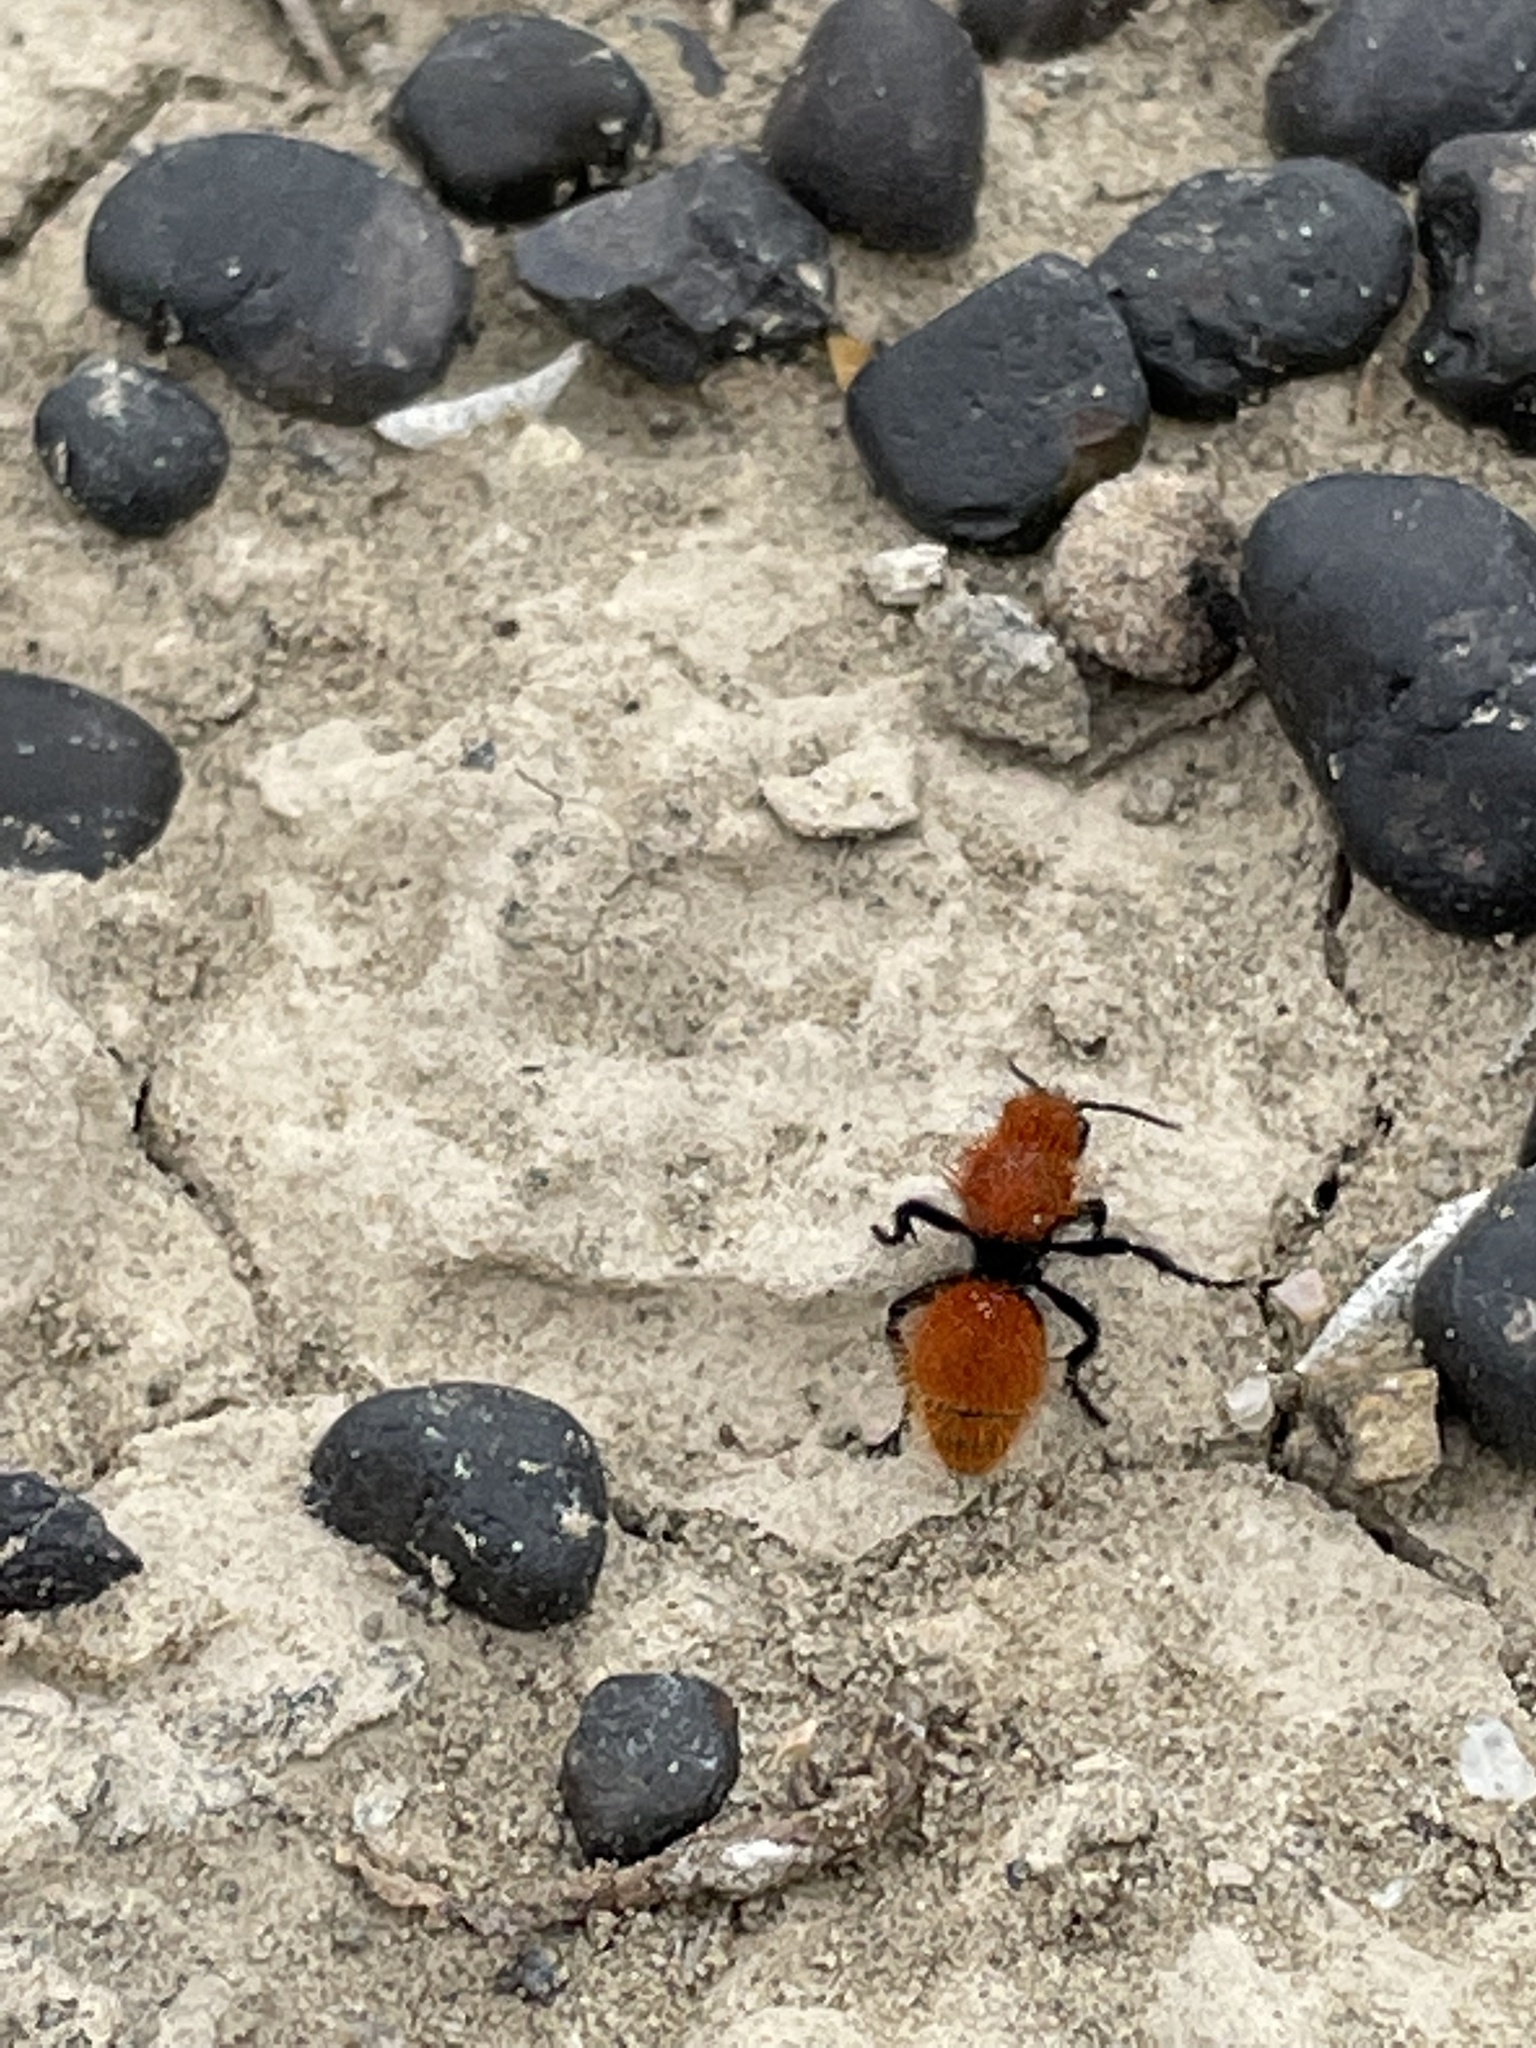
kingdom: Animalia
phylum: Arthropoda
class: Insecta
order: Hymenoptera
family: Mutillidae
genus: Dasymutilla
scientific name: Dasymutilla vestita
